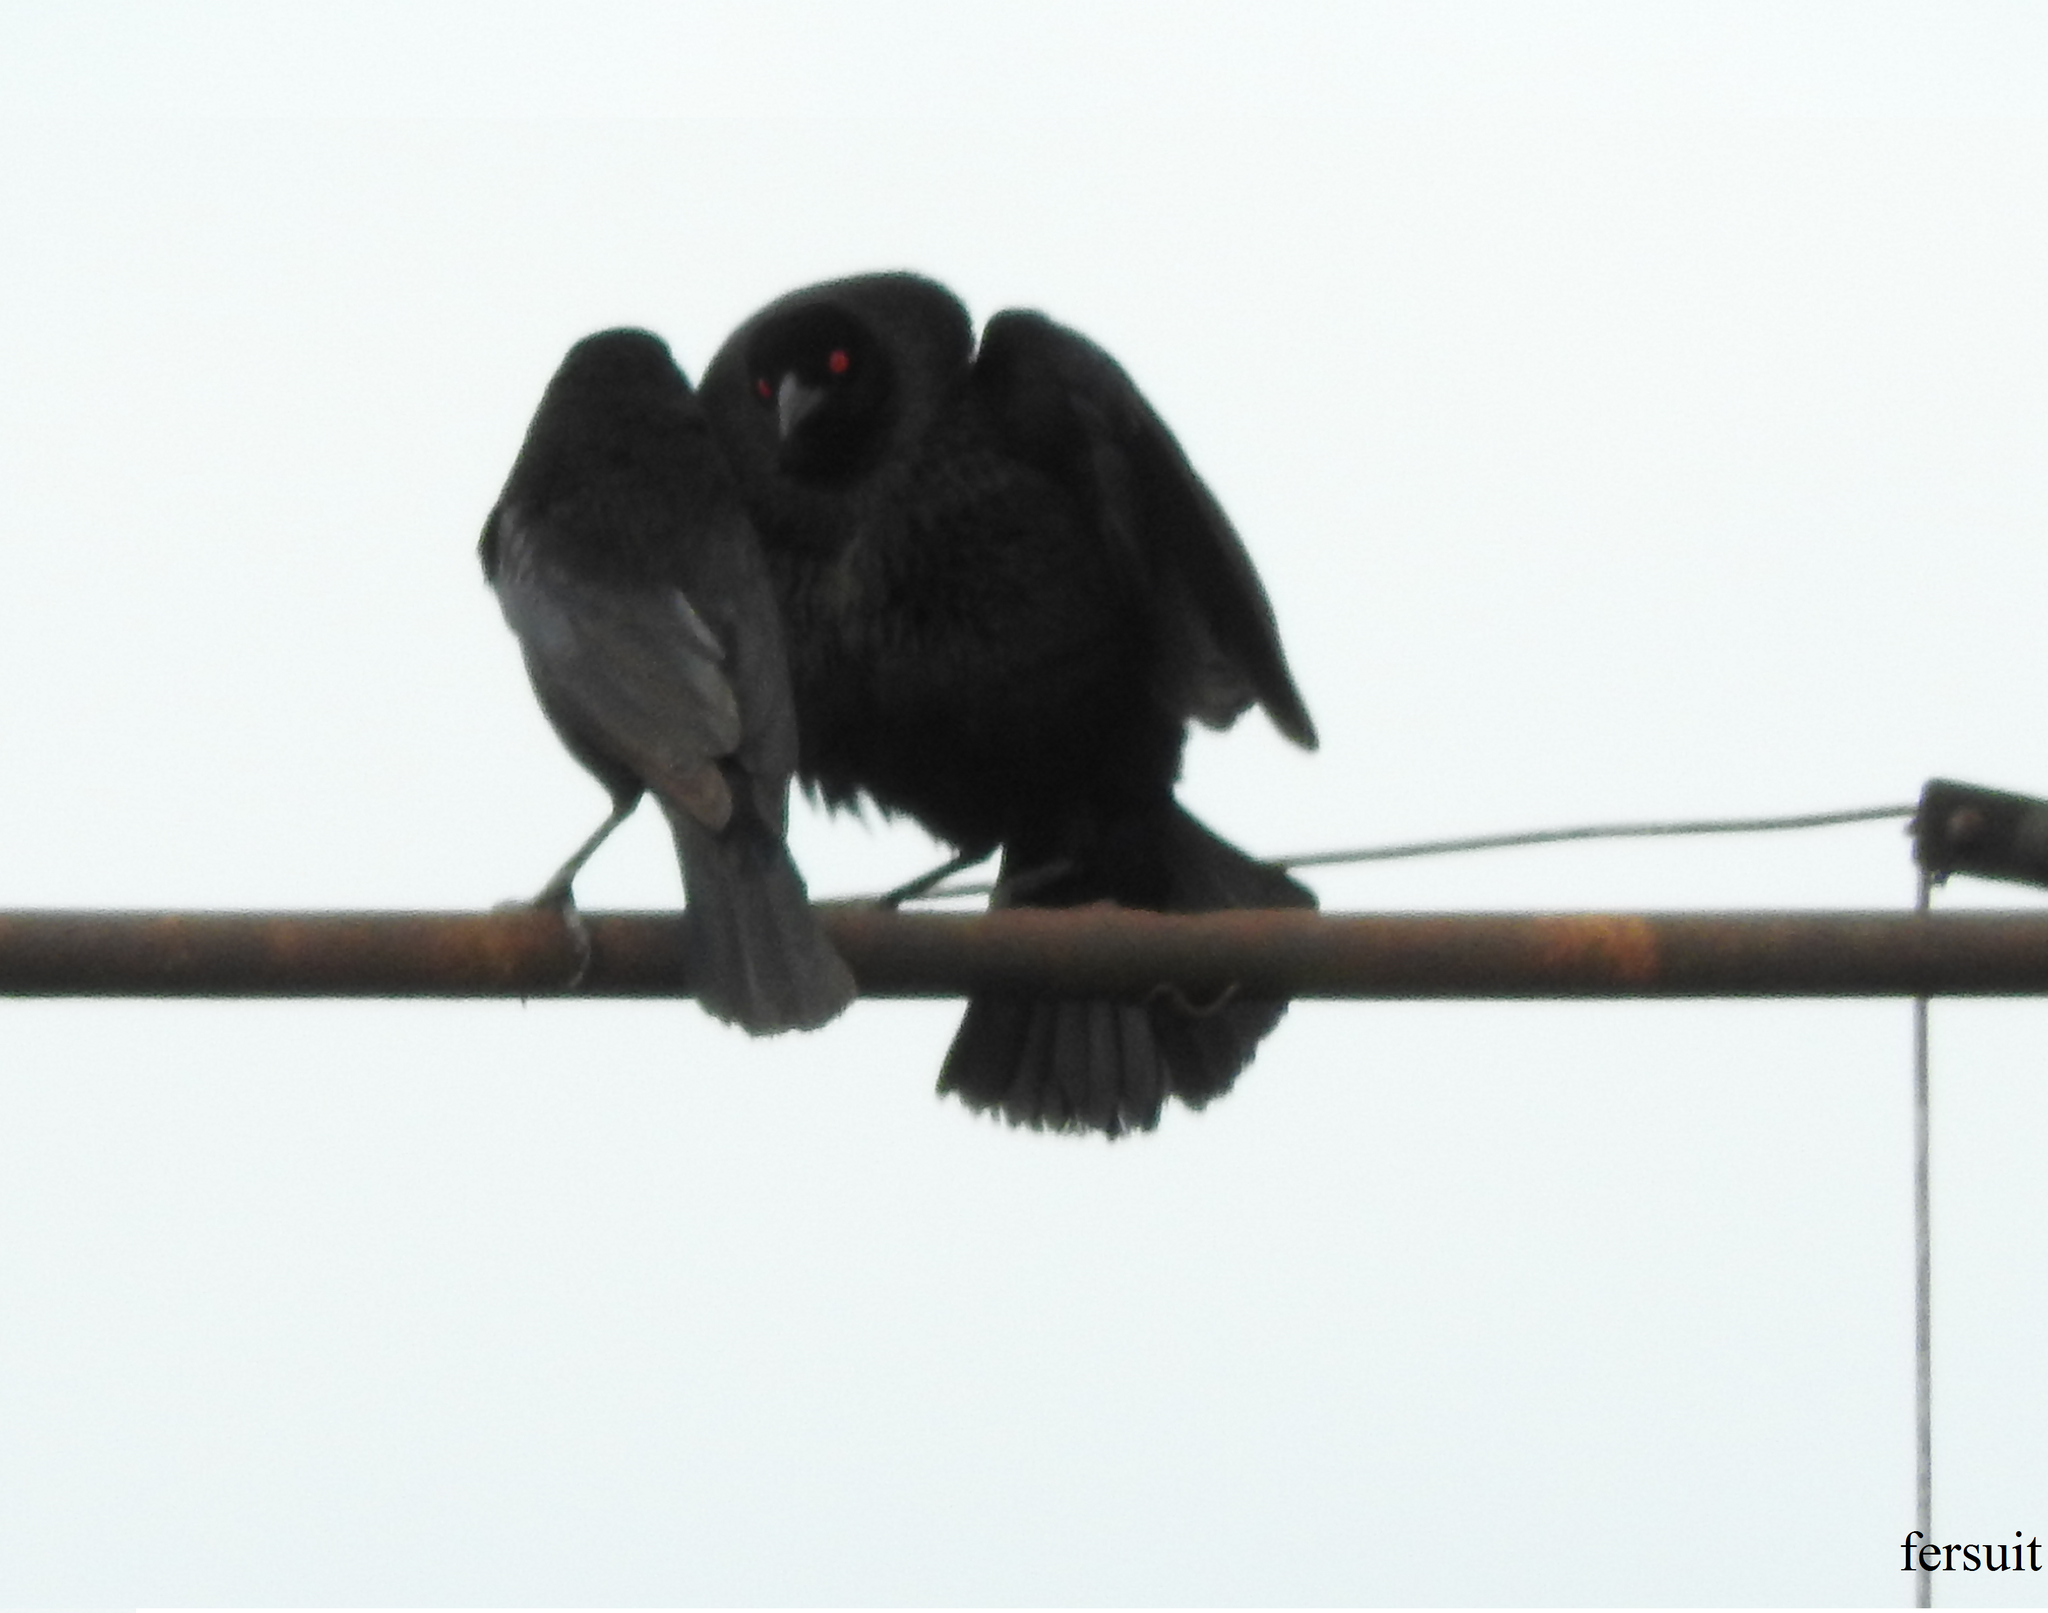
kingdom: Animalia
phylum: Chordata
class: Aves
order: Passeriformes
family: Icteridae
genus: Molothrus
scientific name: Molothrus aeneus
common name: Bronzed cowbird
